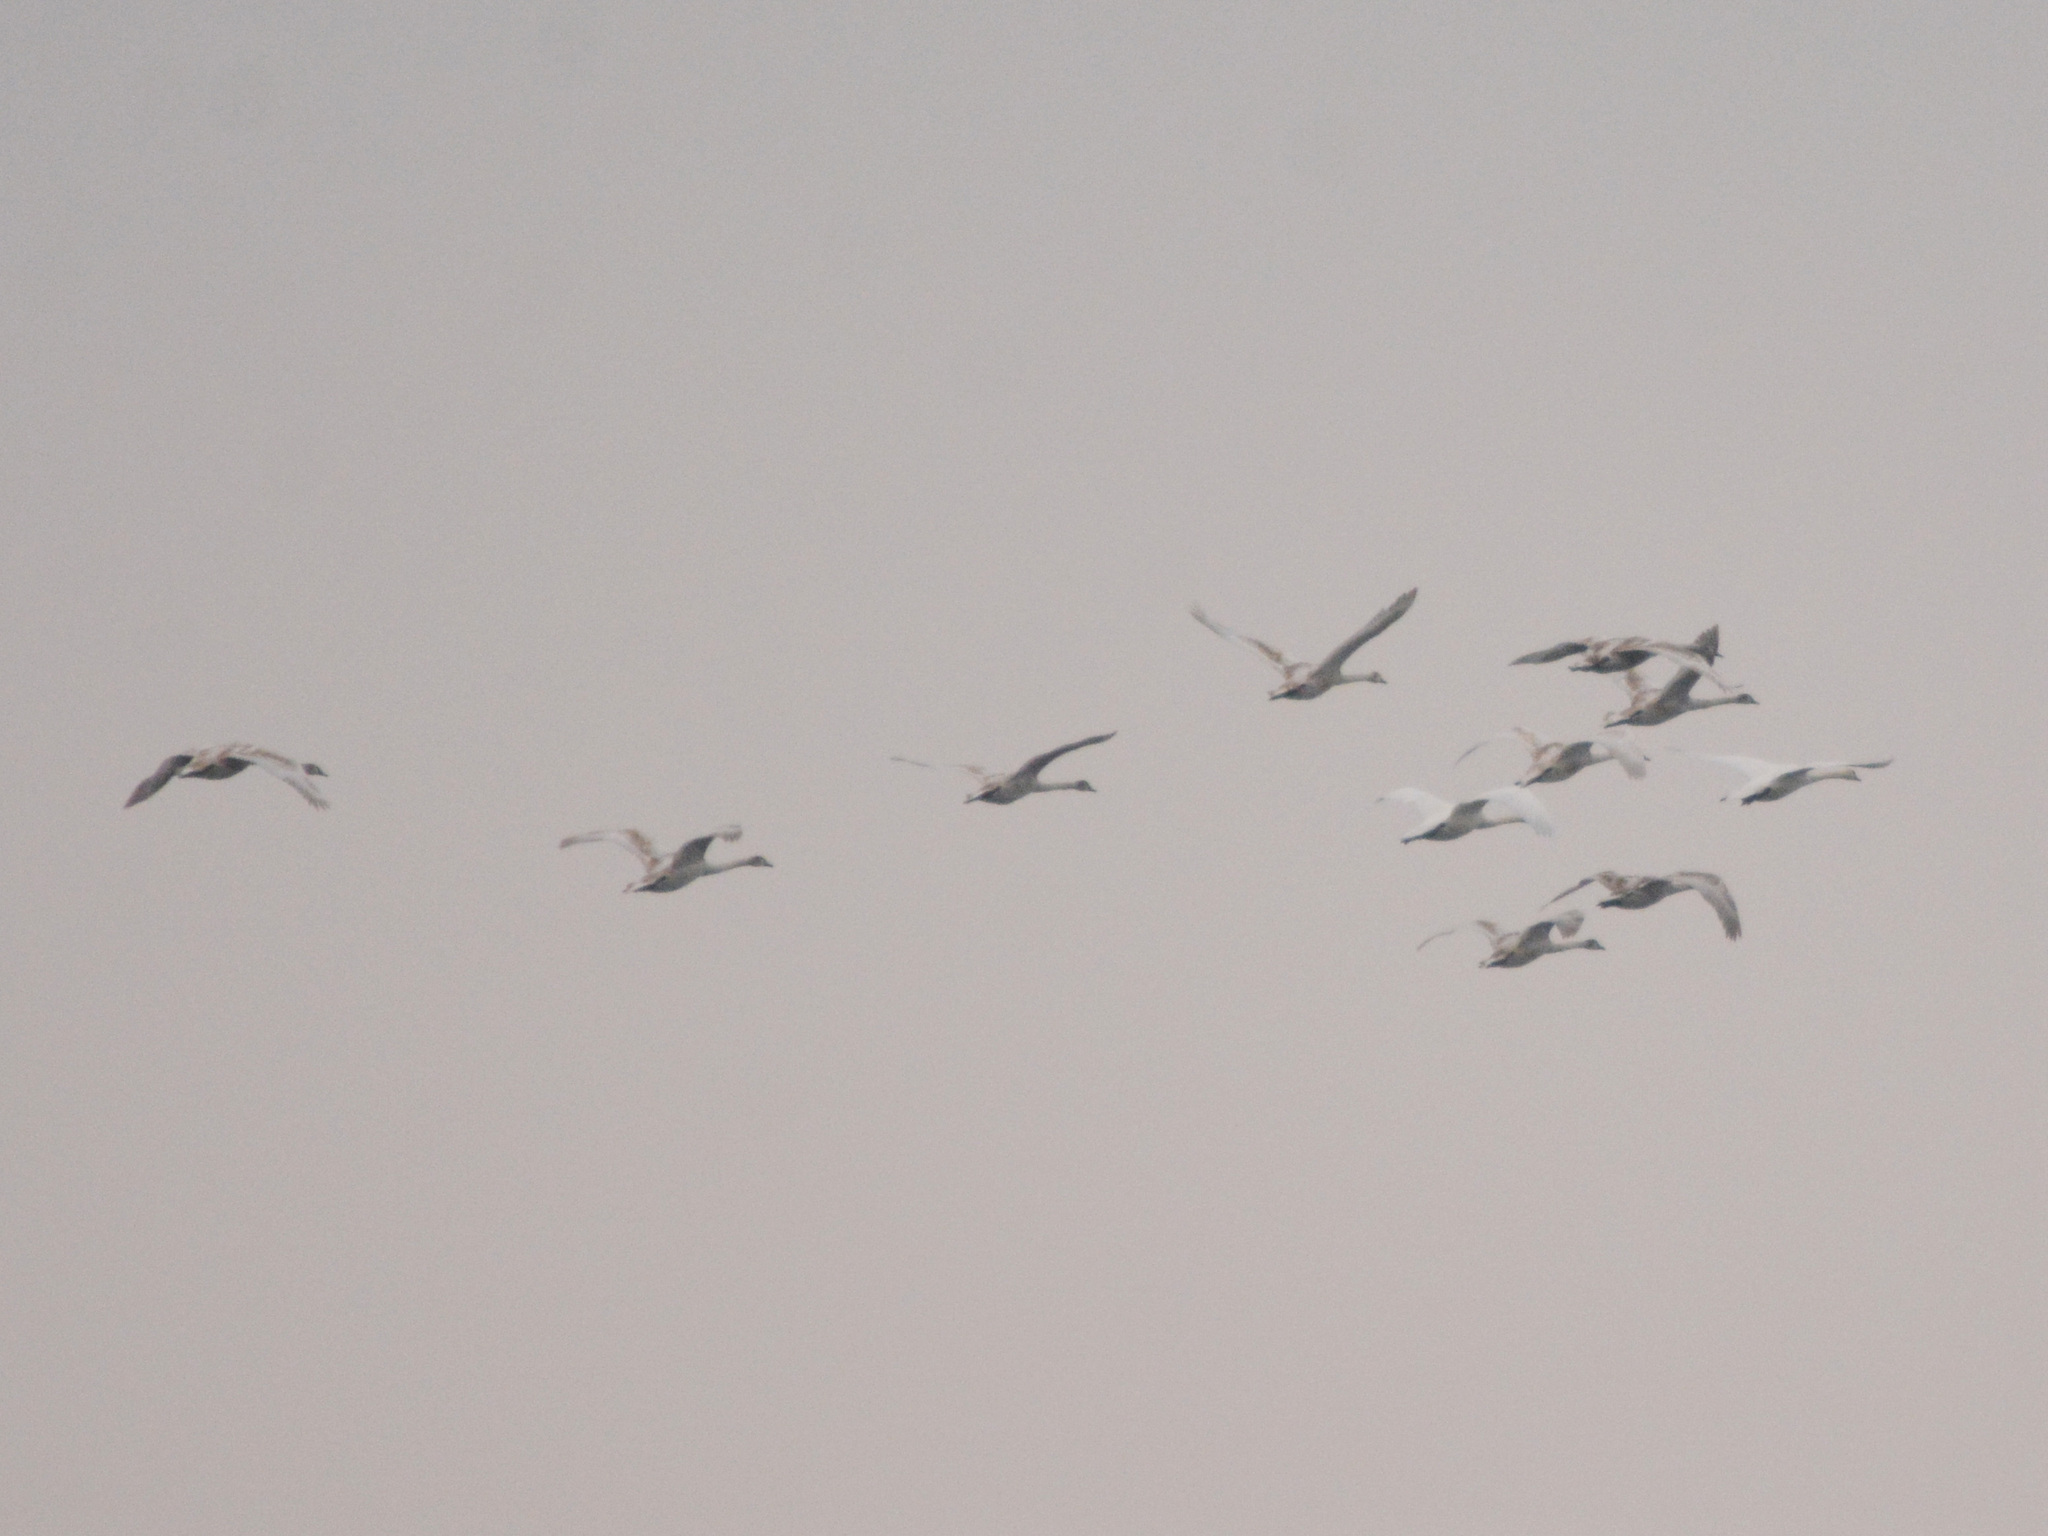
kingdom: Animalia
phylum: Chordata
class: Aves
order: Anseriformes
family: Anatidae
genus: Cygnus
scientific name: Cygnus olor
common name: Mute swan
